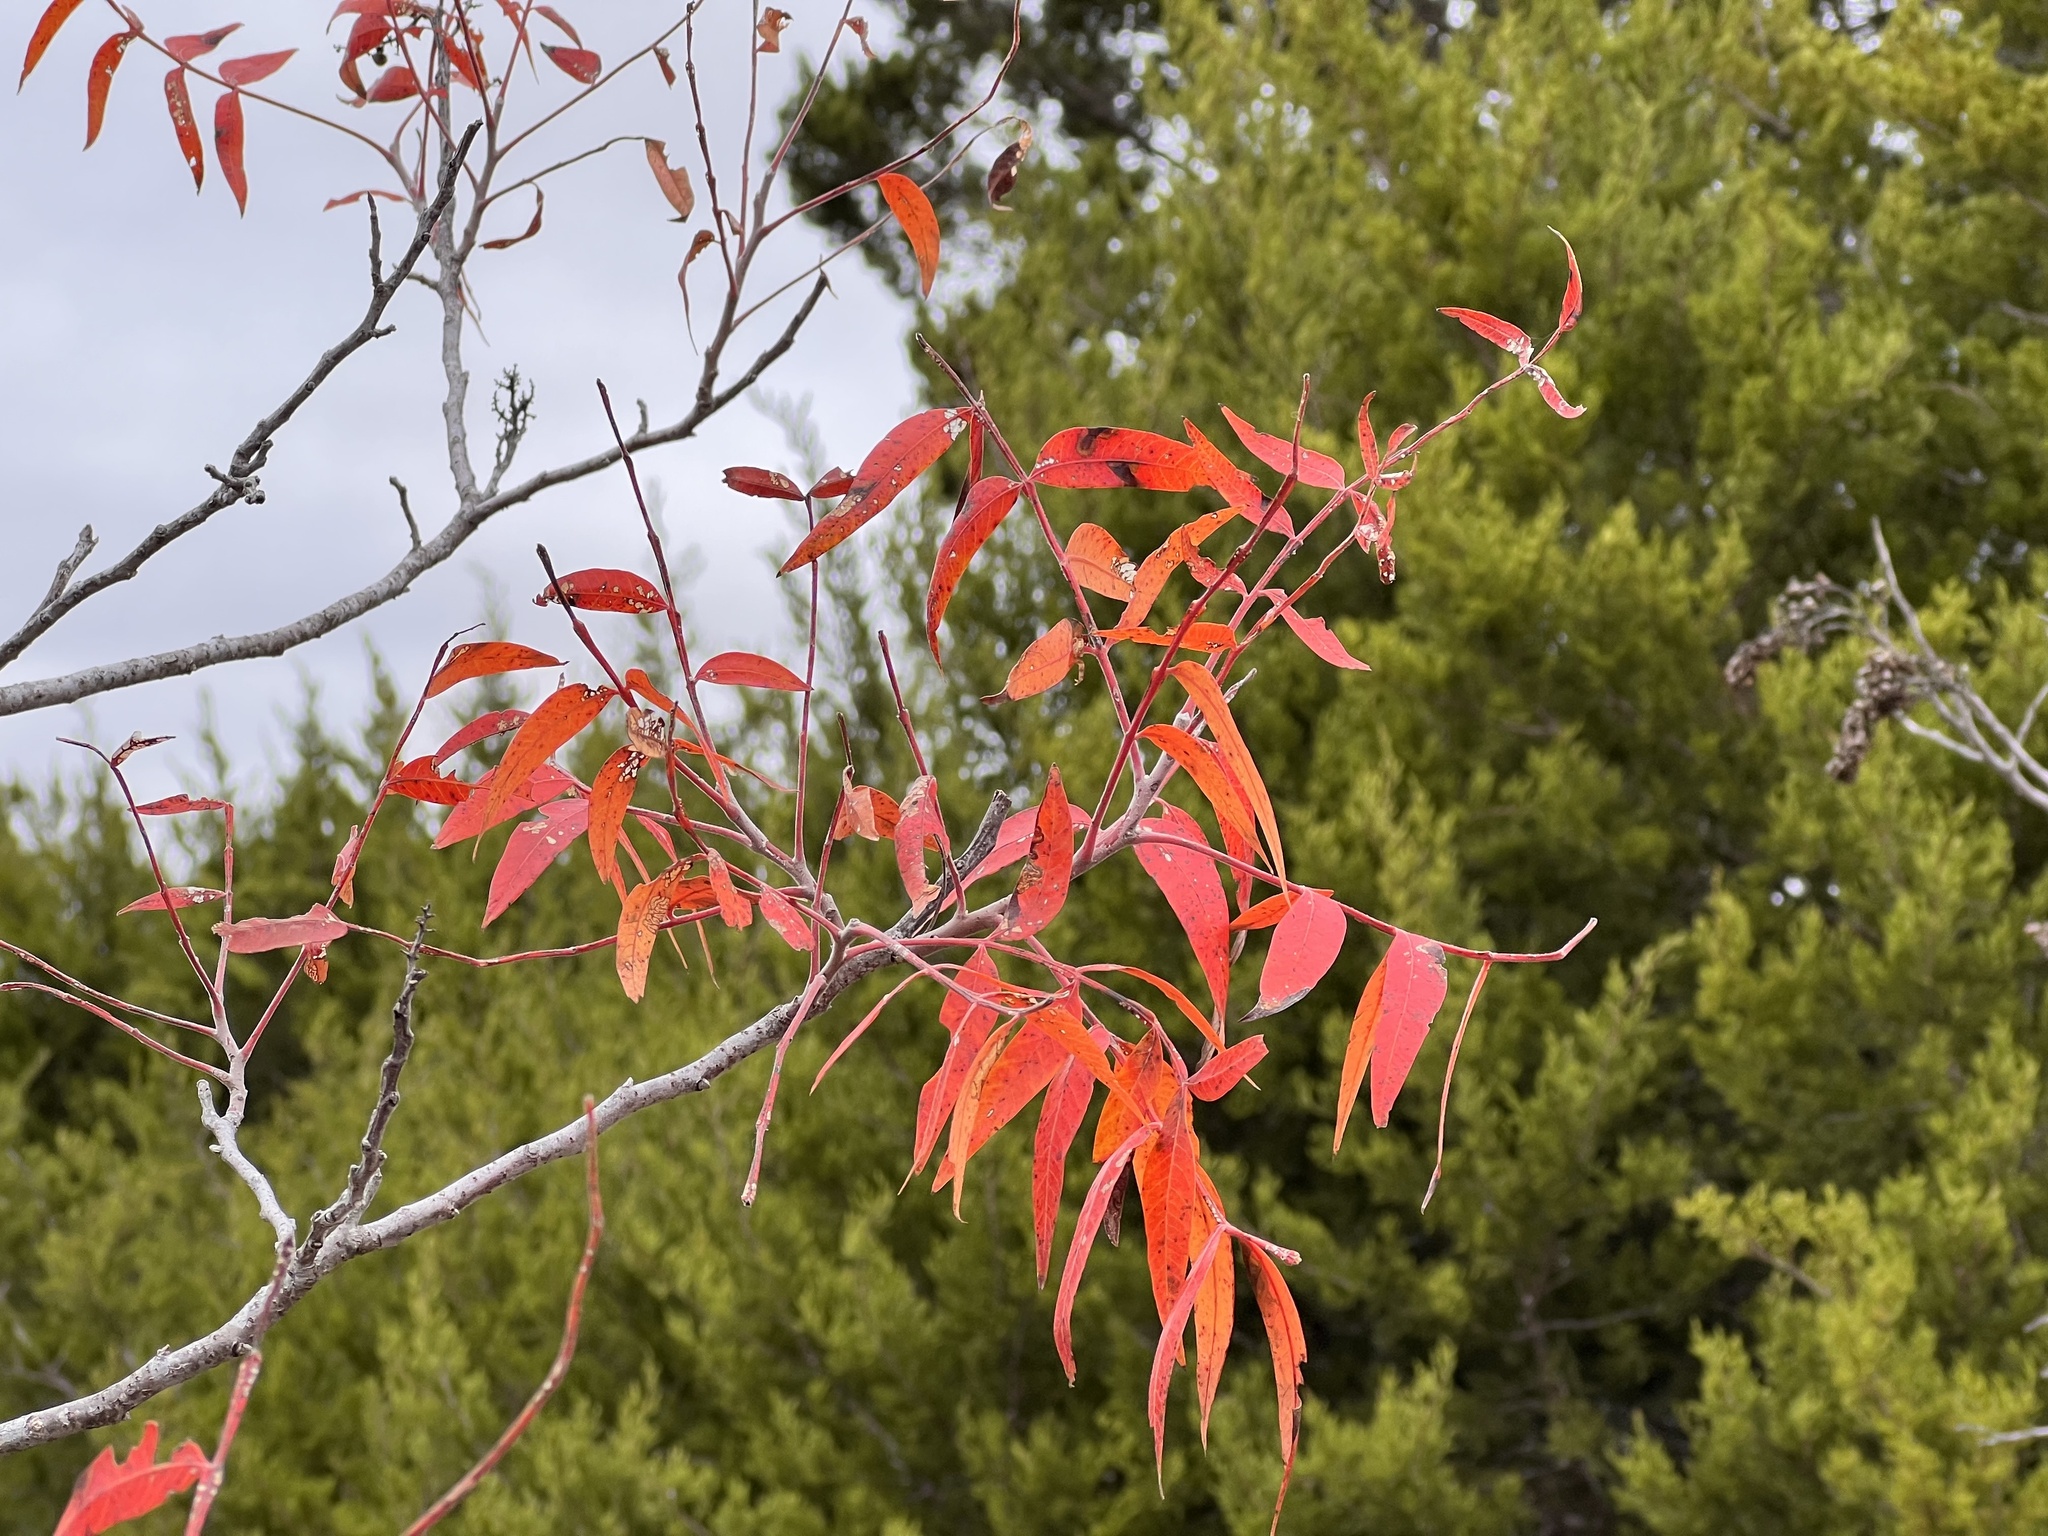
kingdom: Plantae
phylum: Tracheophyta
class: Magnoliopsida
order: Sapindales
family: Anacardiaceae
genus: Rhus
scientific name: Rhus lanceolata
